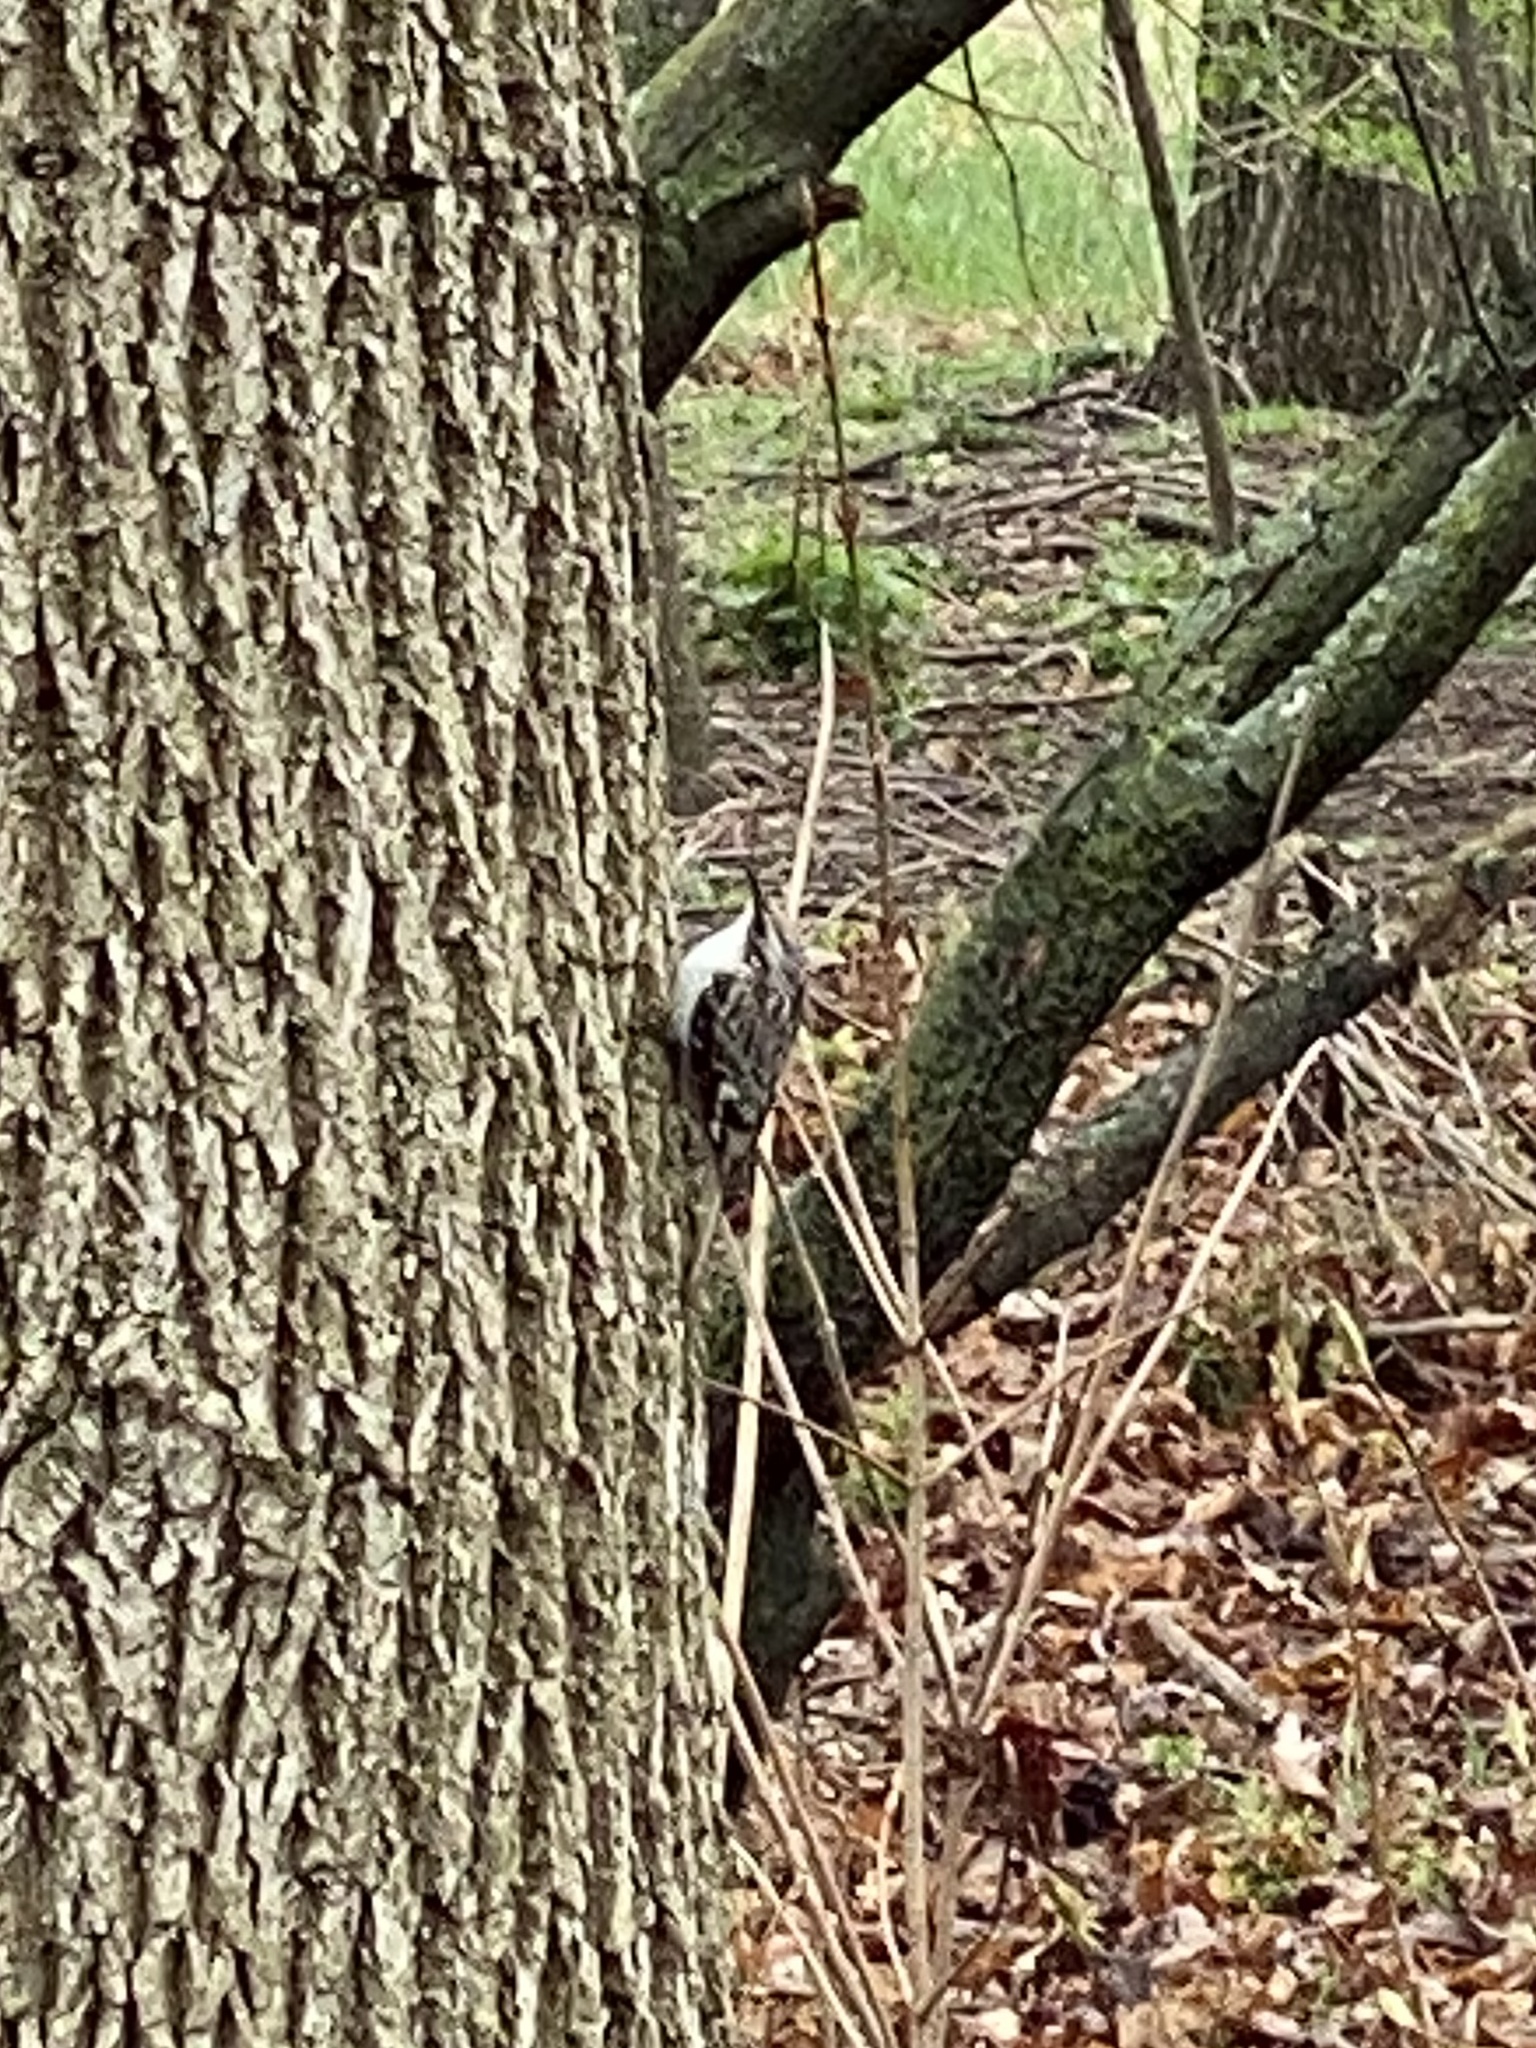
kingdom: Animalia
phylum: Chordata
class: Aves
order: Passeriformes
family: Certhiidae
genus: Certhia
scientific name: Certhia americana
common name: Brown creeper
